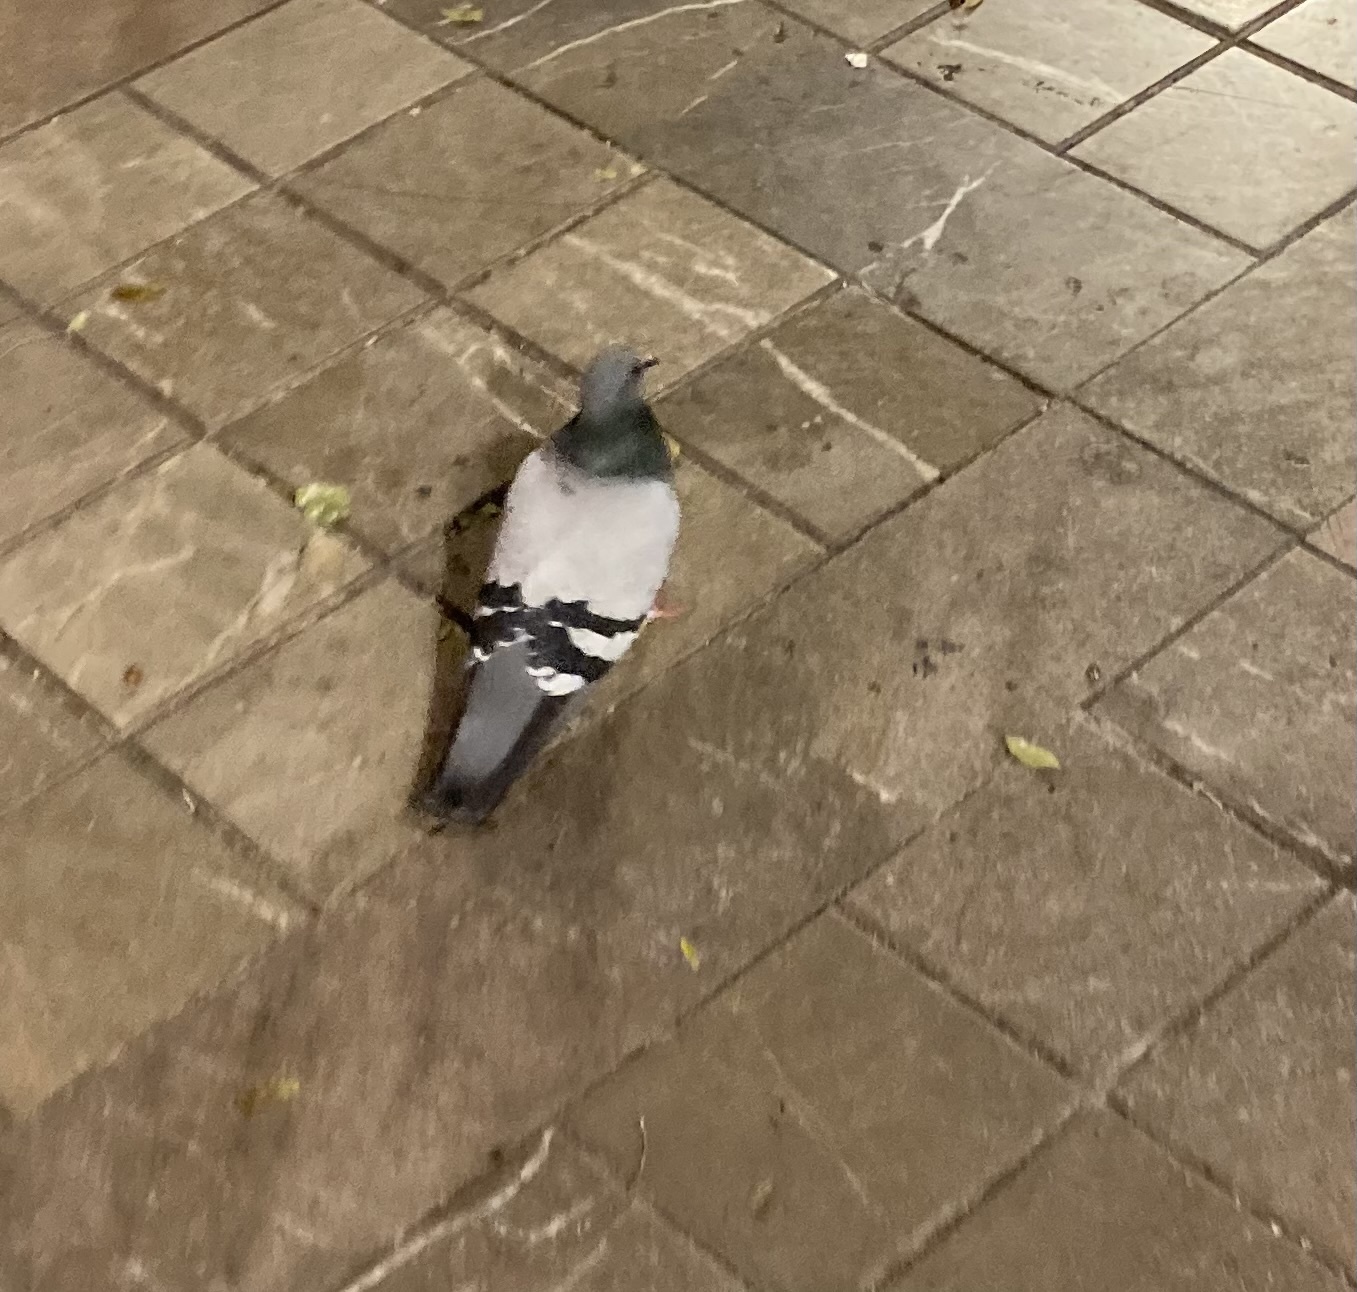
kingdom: Animalia
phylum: Chordata
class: Aves
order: Columbiformes
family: Columbidae
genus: Columba
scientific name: Columba livia
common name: Rock pigeon
